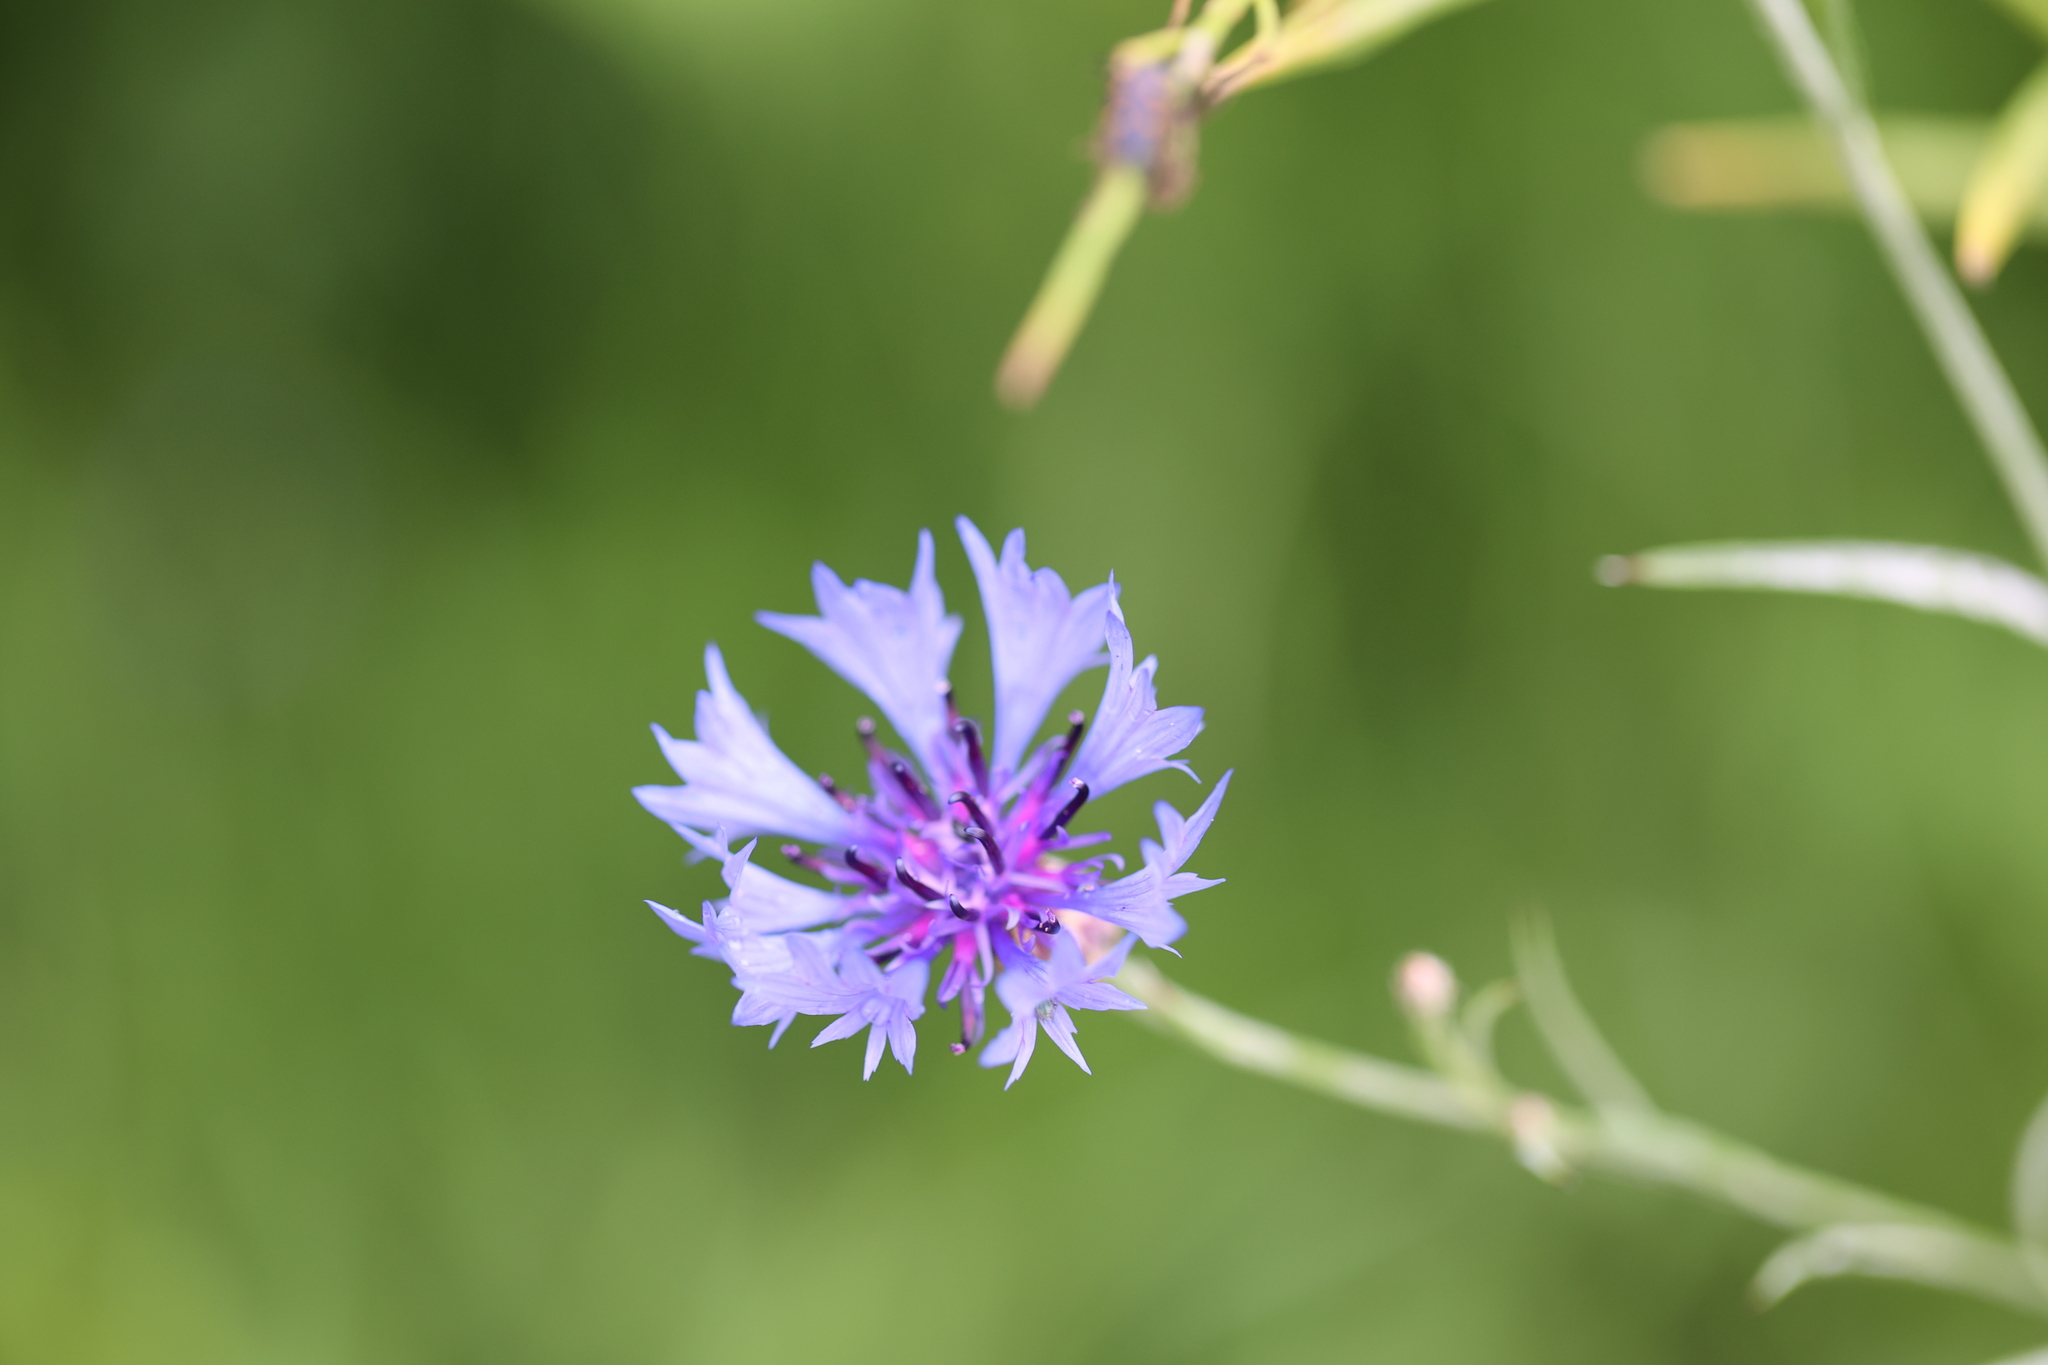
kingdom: Plantae
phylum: Tracheophyta
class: Magnoliopsida
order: Asterales
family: Asteraceae
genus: Centaurea
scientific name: Centaurea cyanus
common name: Cornflower
